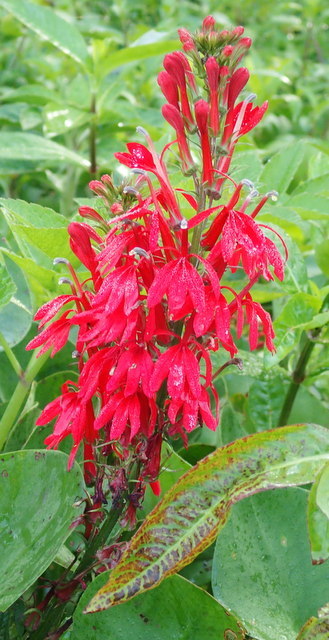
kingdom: Plantae
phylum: Tracheophyta
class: Magnoliopsida
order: Asterales
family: Campanulaceae
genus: Lobelia
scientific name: Lobelia cardinalis
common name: Cardinal flower
